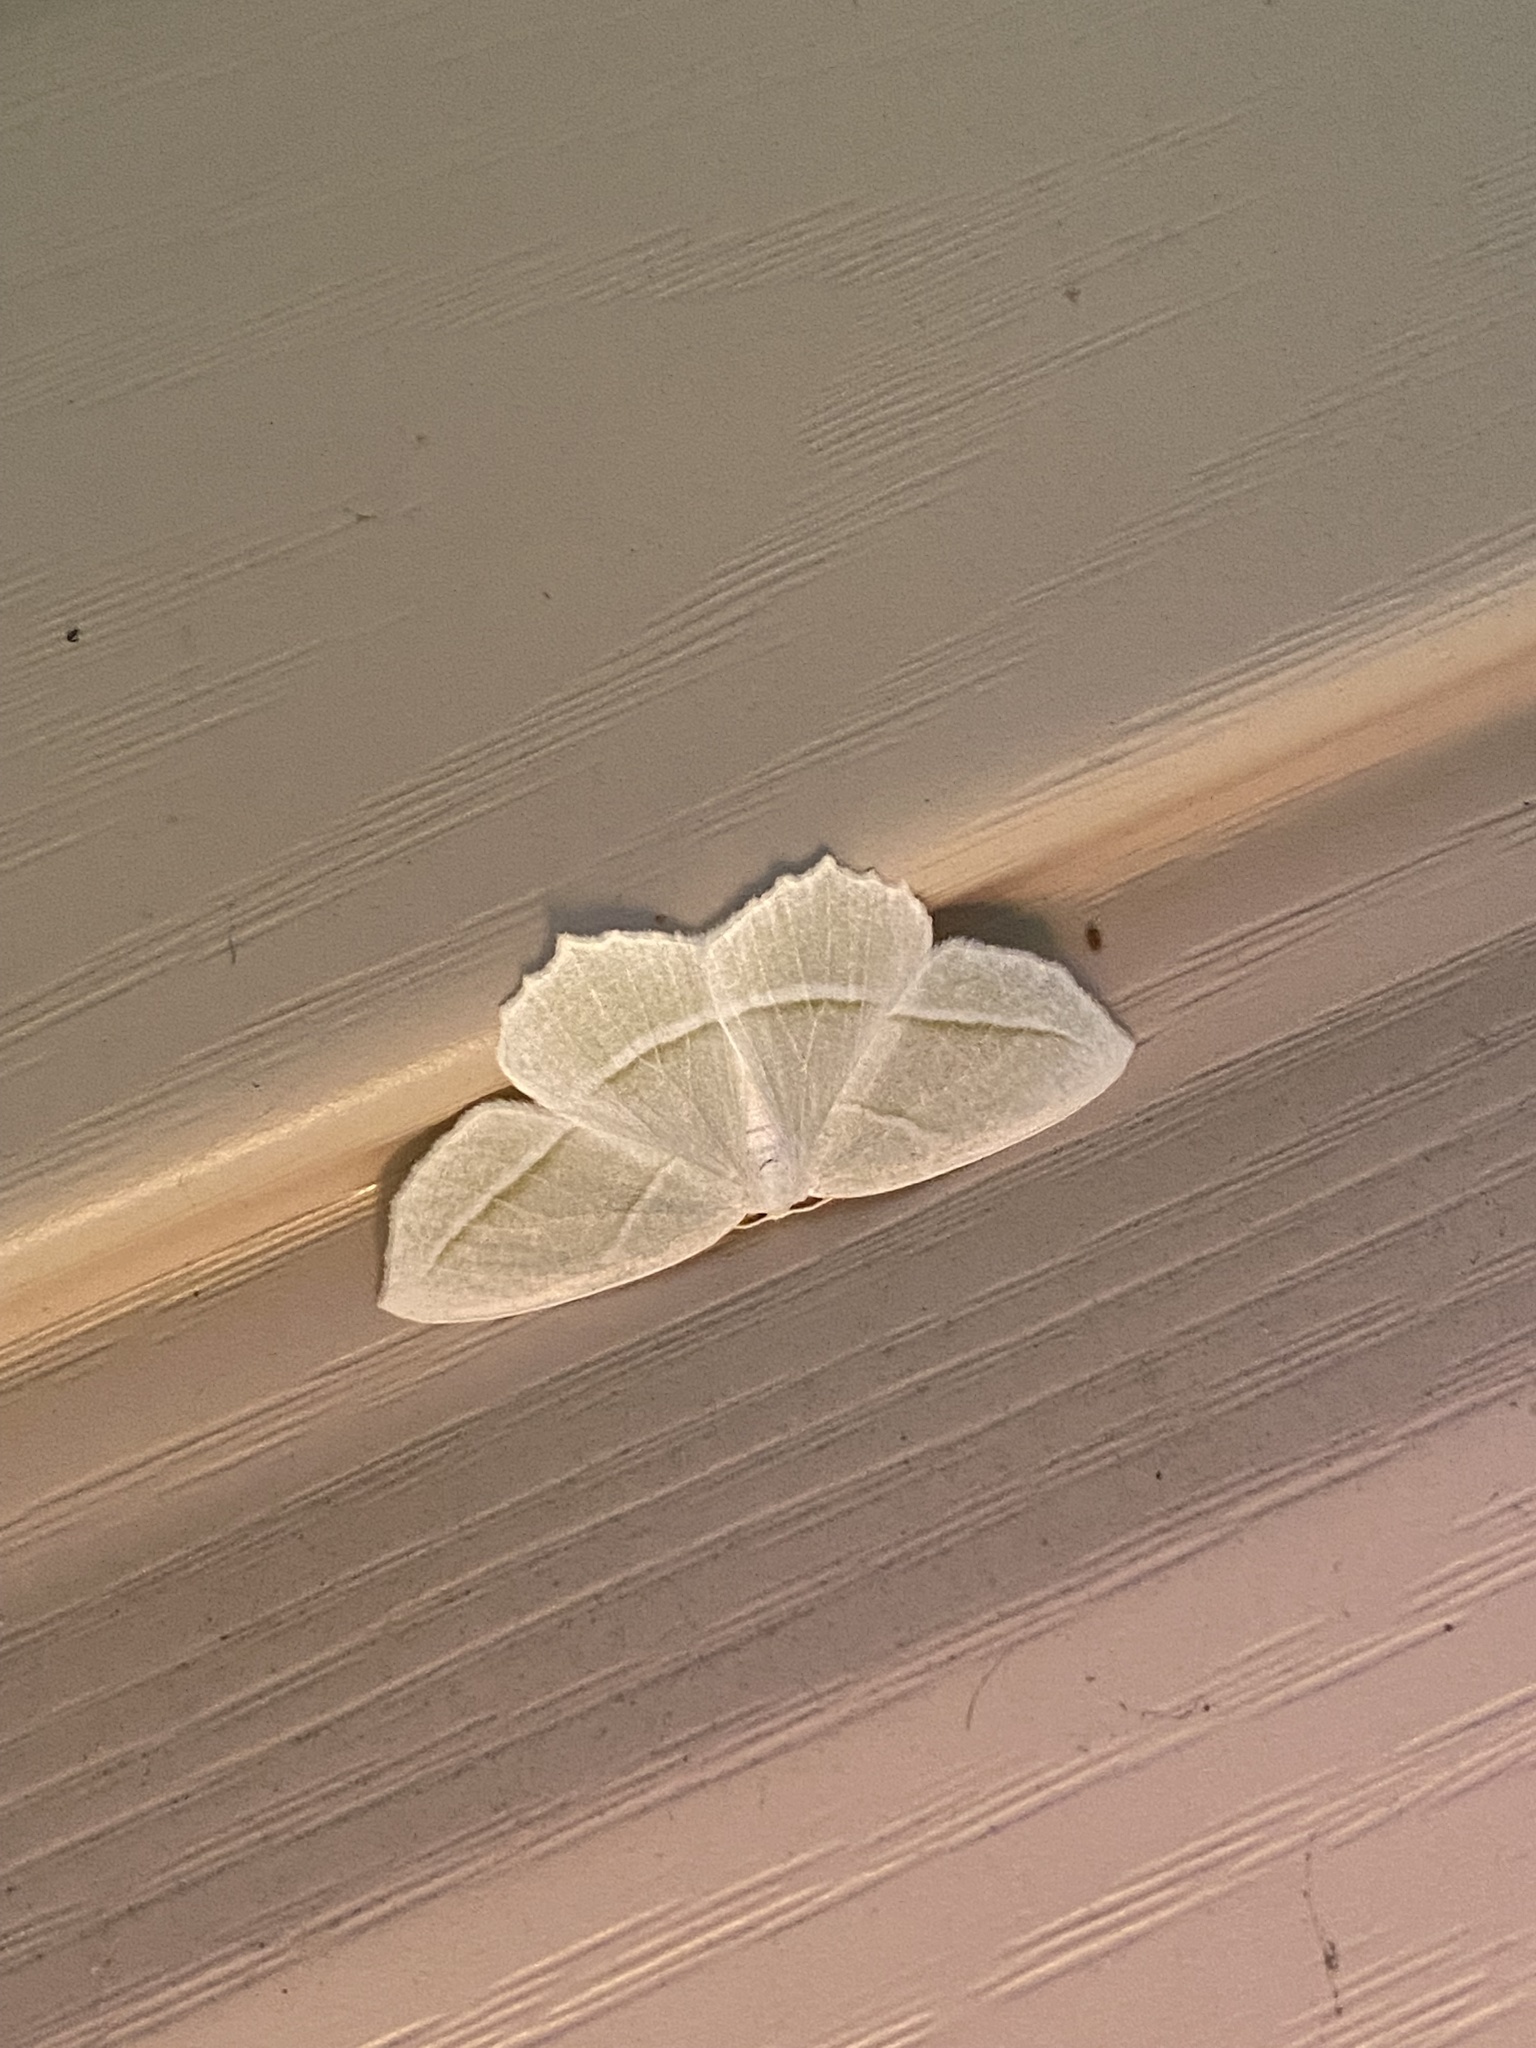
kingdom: Animalia
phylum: Arthropoda
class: Insecta
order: Lepidoptera
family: Geometridae
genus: Campaea
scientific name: Campaea perlata
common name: Fringed looper
